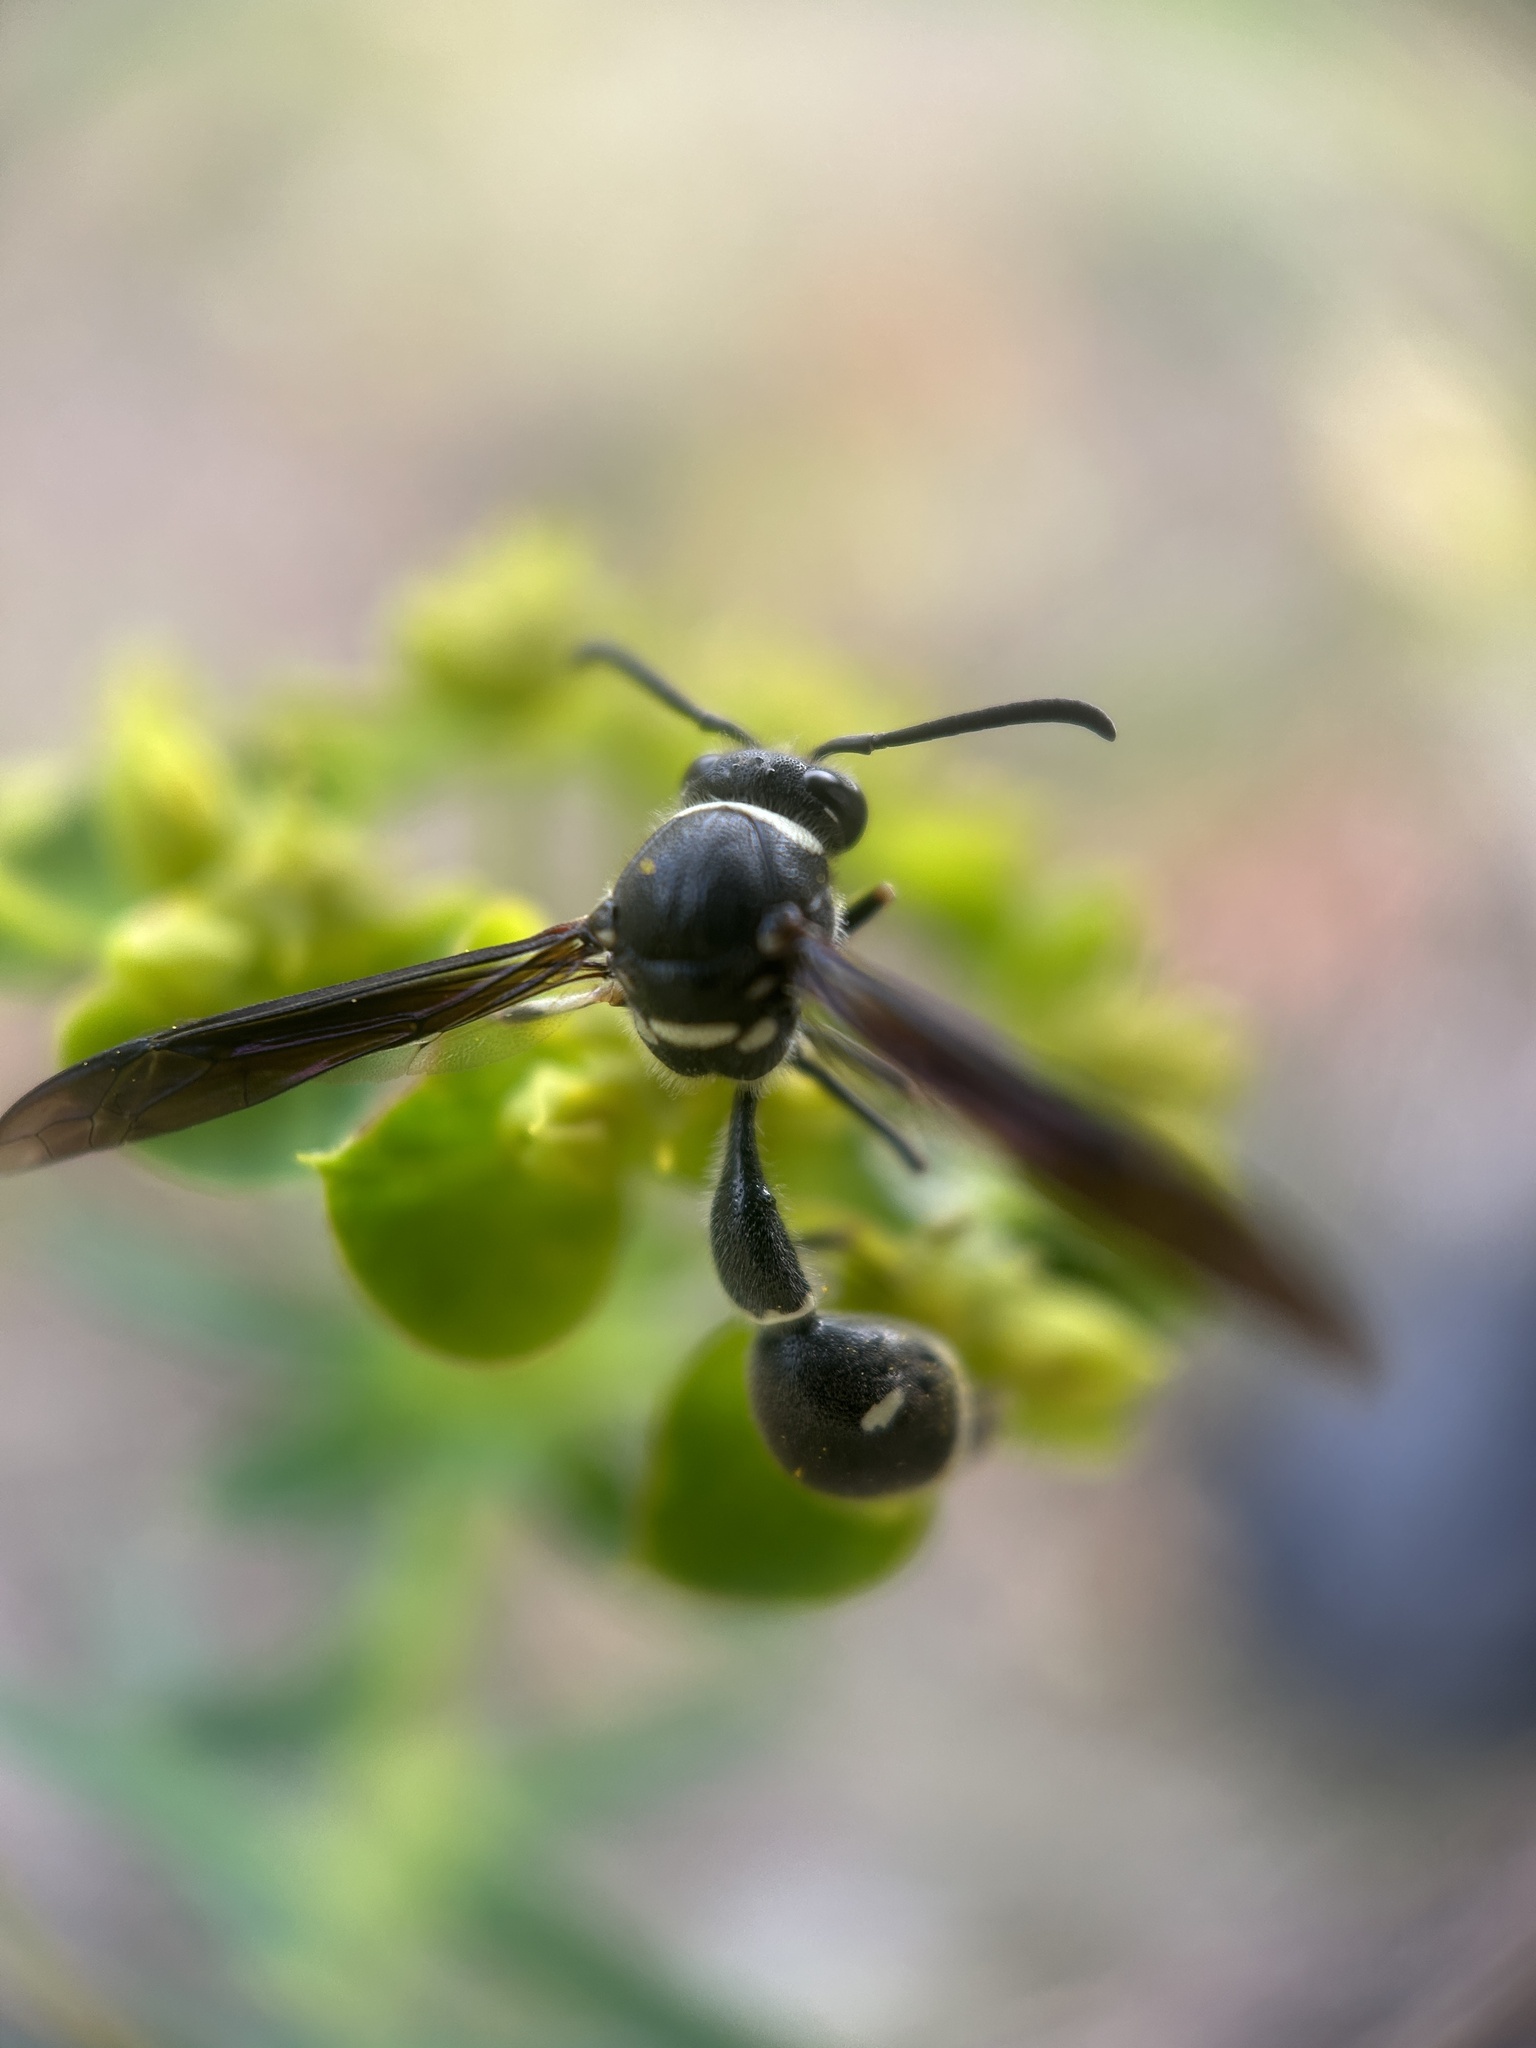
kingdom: Animalia
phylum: Arthropoda
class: Insecta
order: Hymenoptera
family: Vespidae
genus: Eumenes
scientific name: Eumenes fraternus
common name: Fraternal potter wasp
